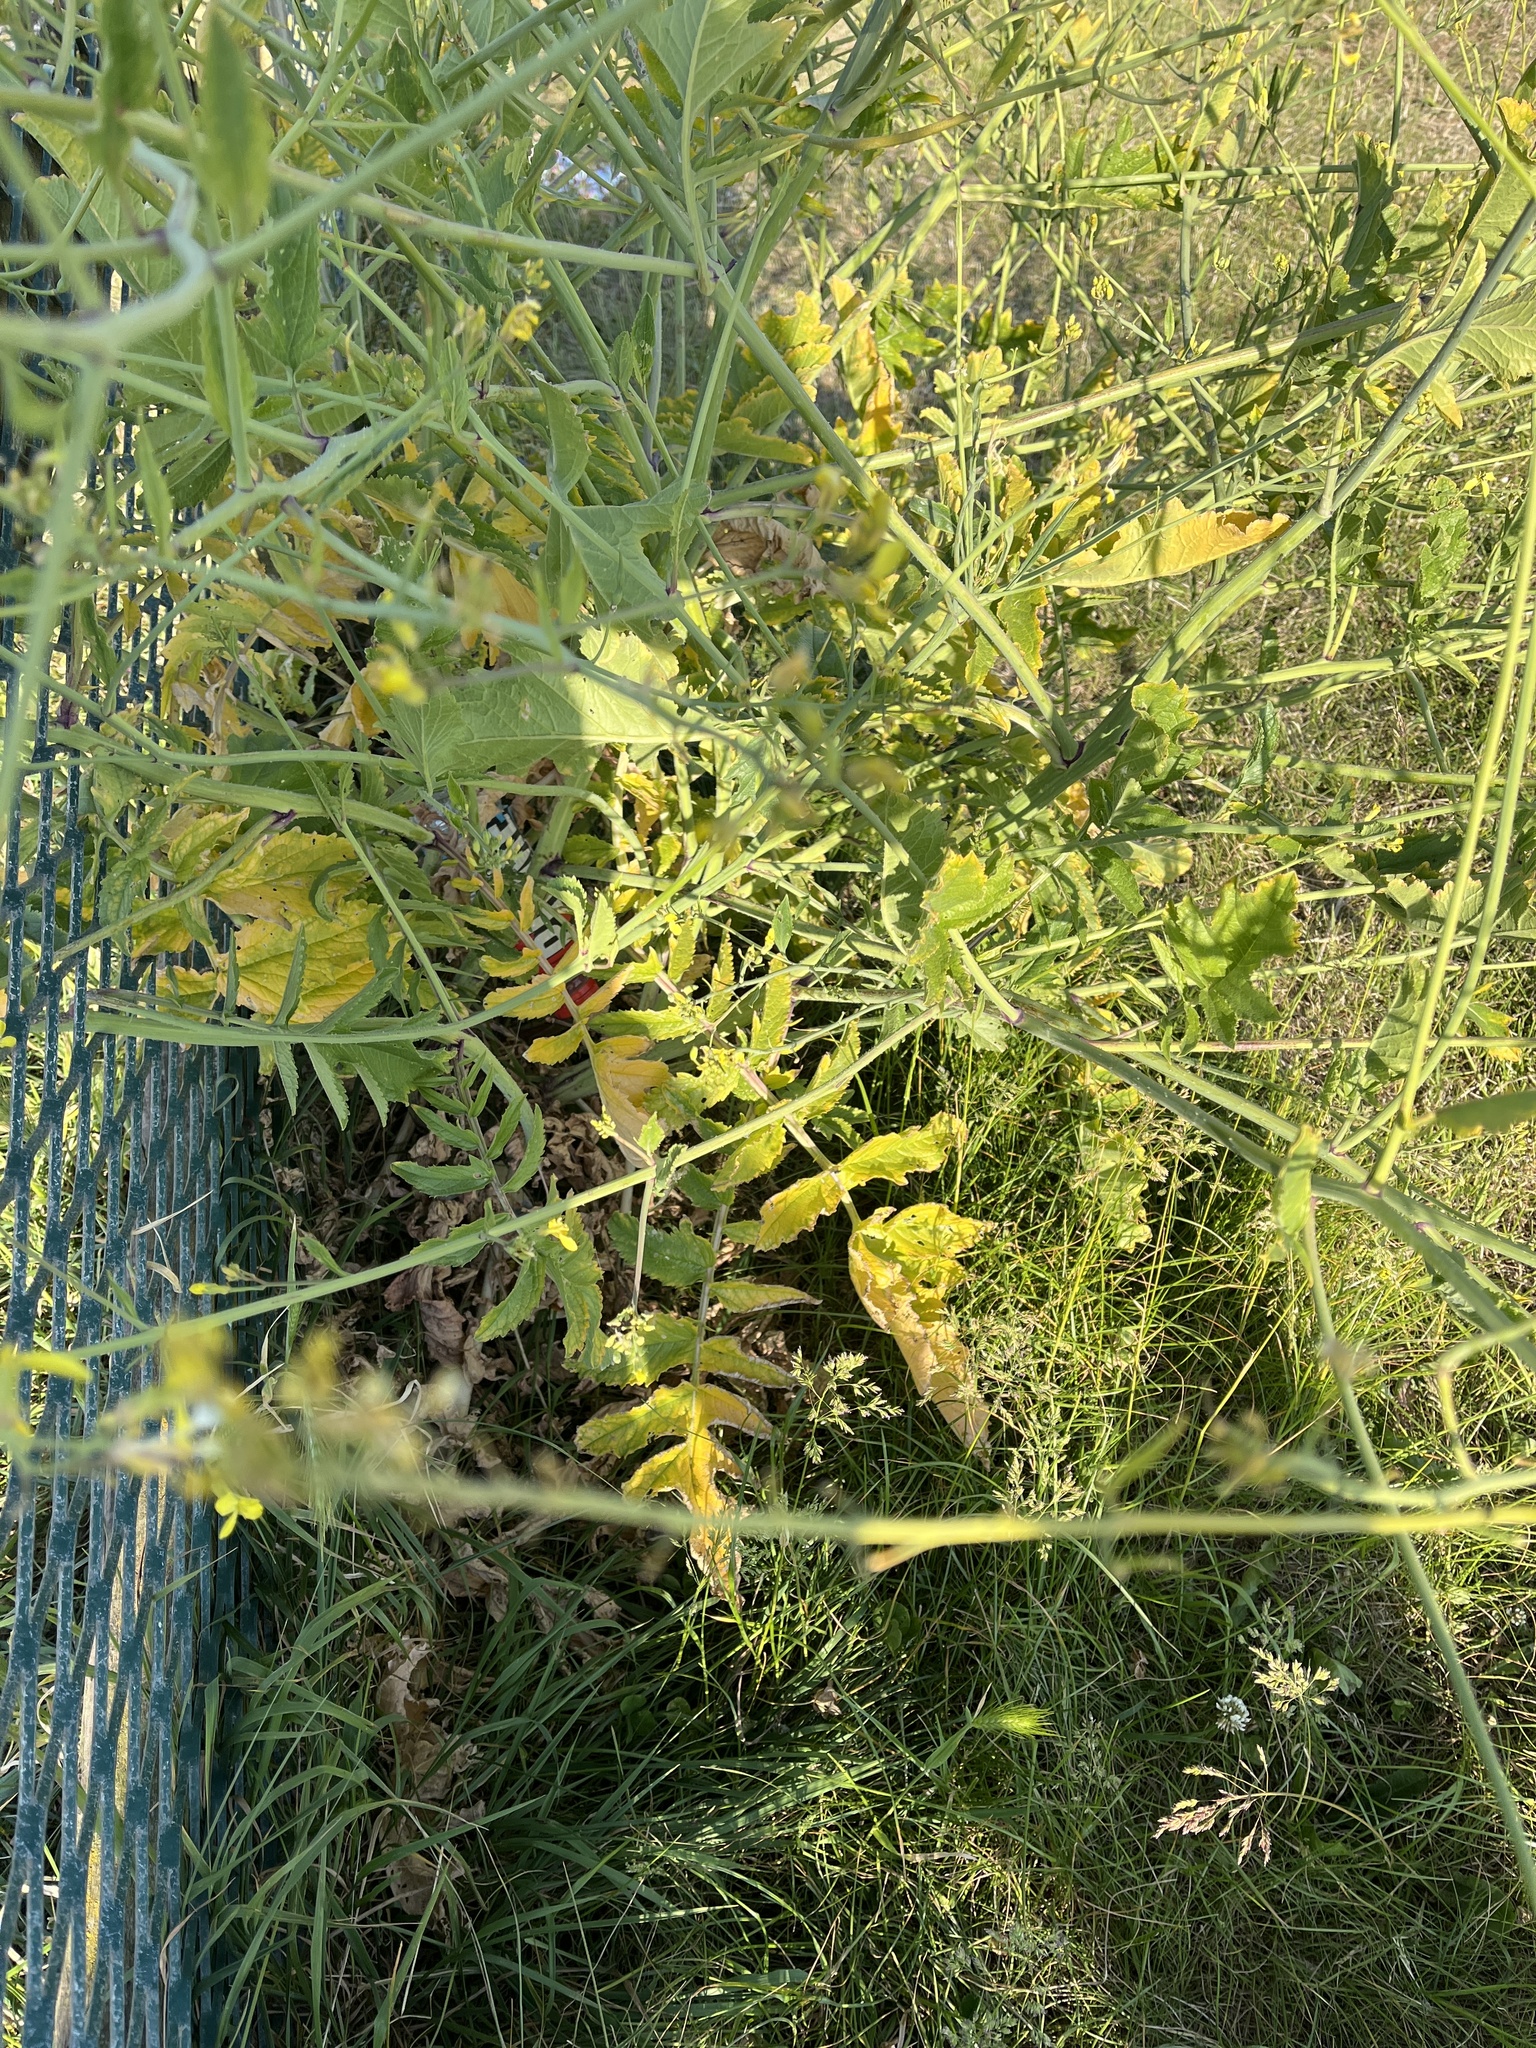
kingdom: Plantae
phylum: Tracheophyta
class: Magnoliopsida
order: Brassicales
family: Brassicaceae
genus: Raphanus
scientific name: Raphanus raphanistrum
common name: Wild radish
